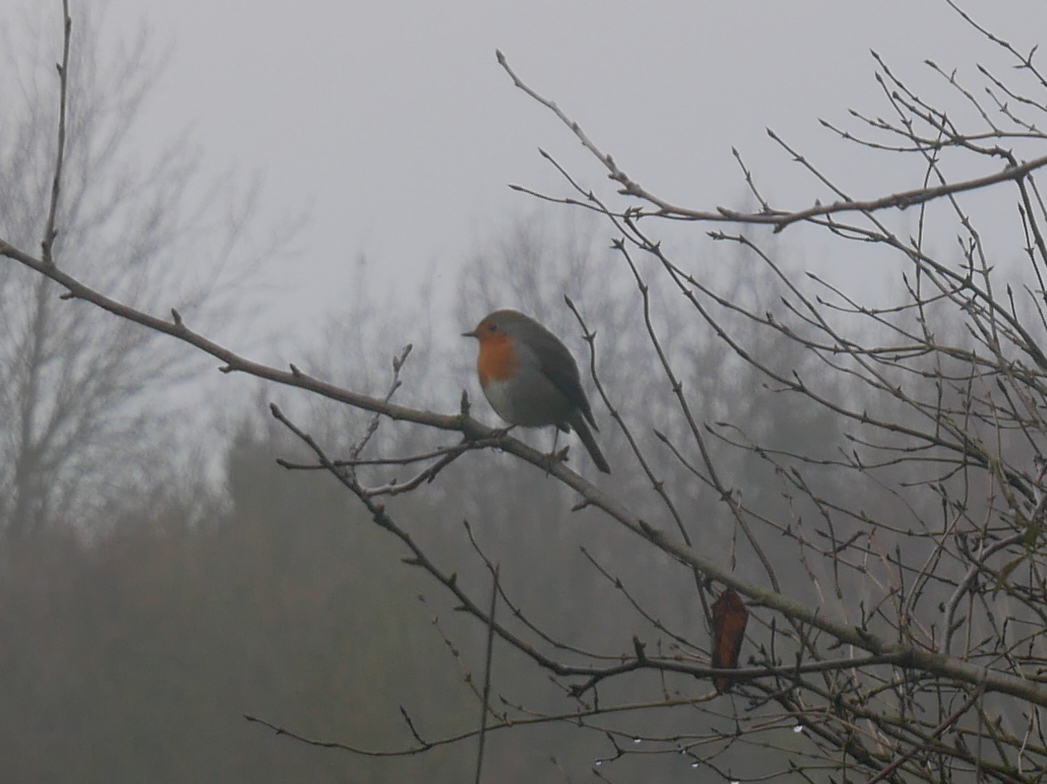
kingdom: Animalia
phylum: Chordata
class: Aves
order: Passeriformes
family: Muscicapidae
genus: Erithacus
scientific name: Erithacus rubecula
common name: European robin
